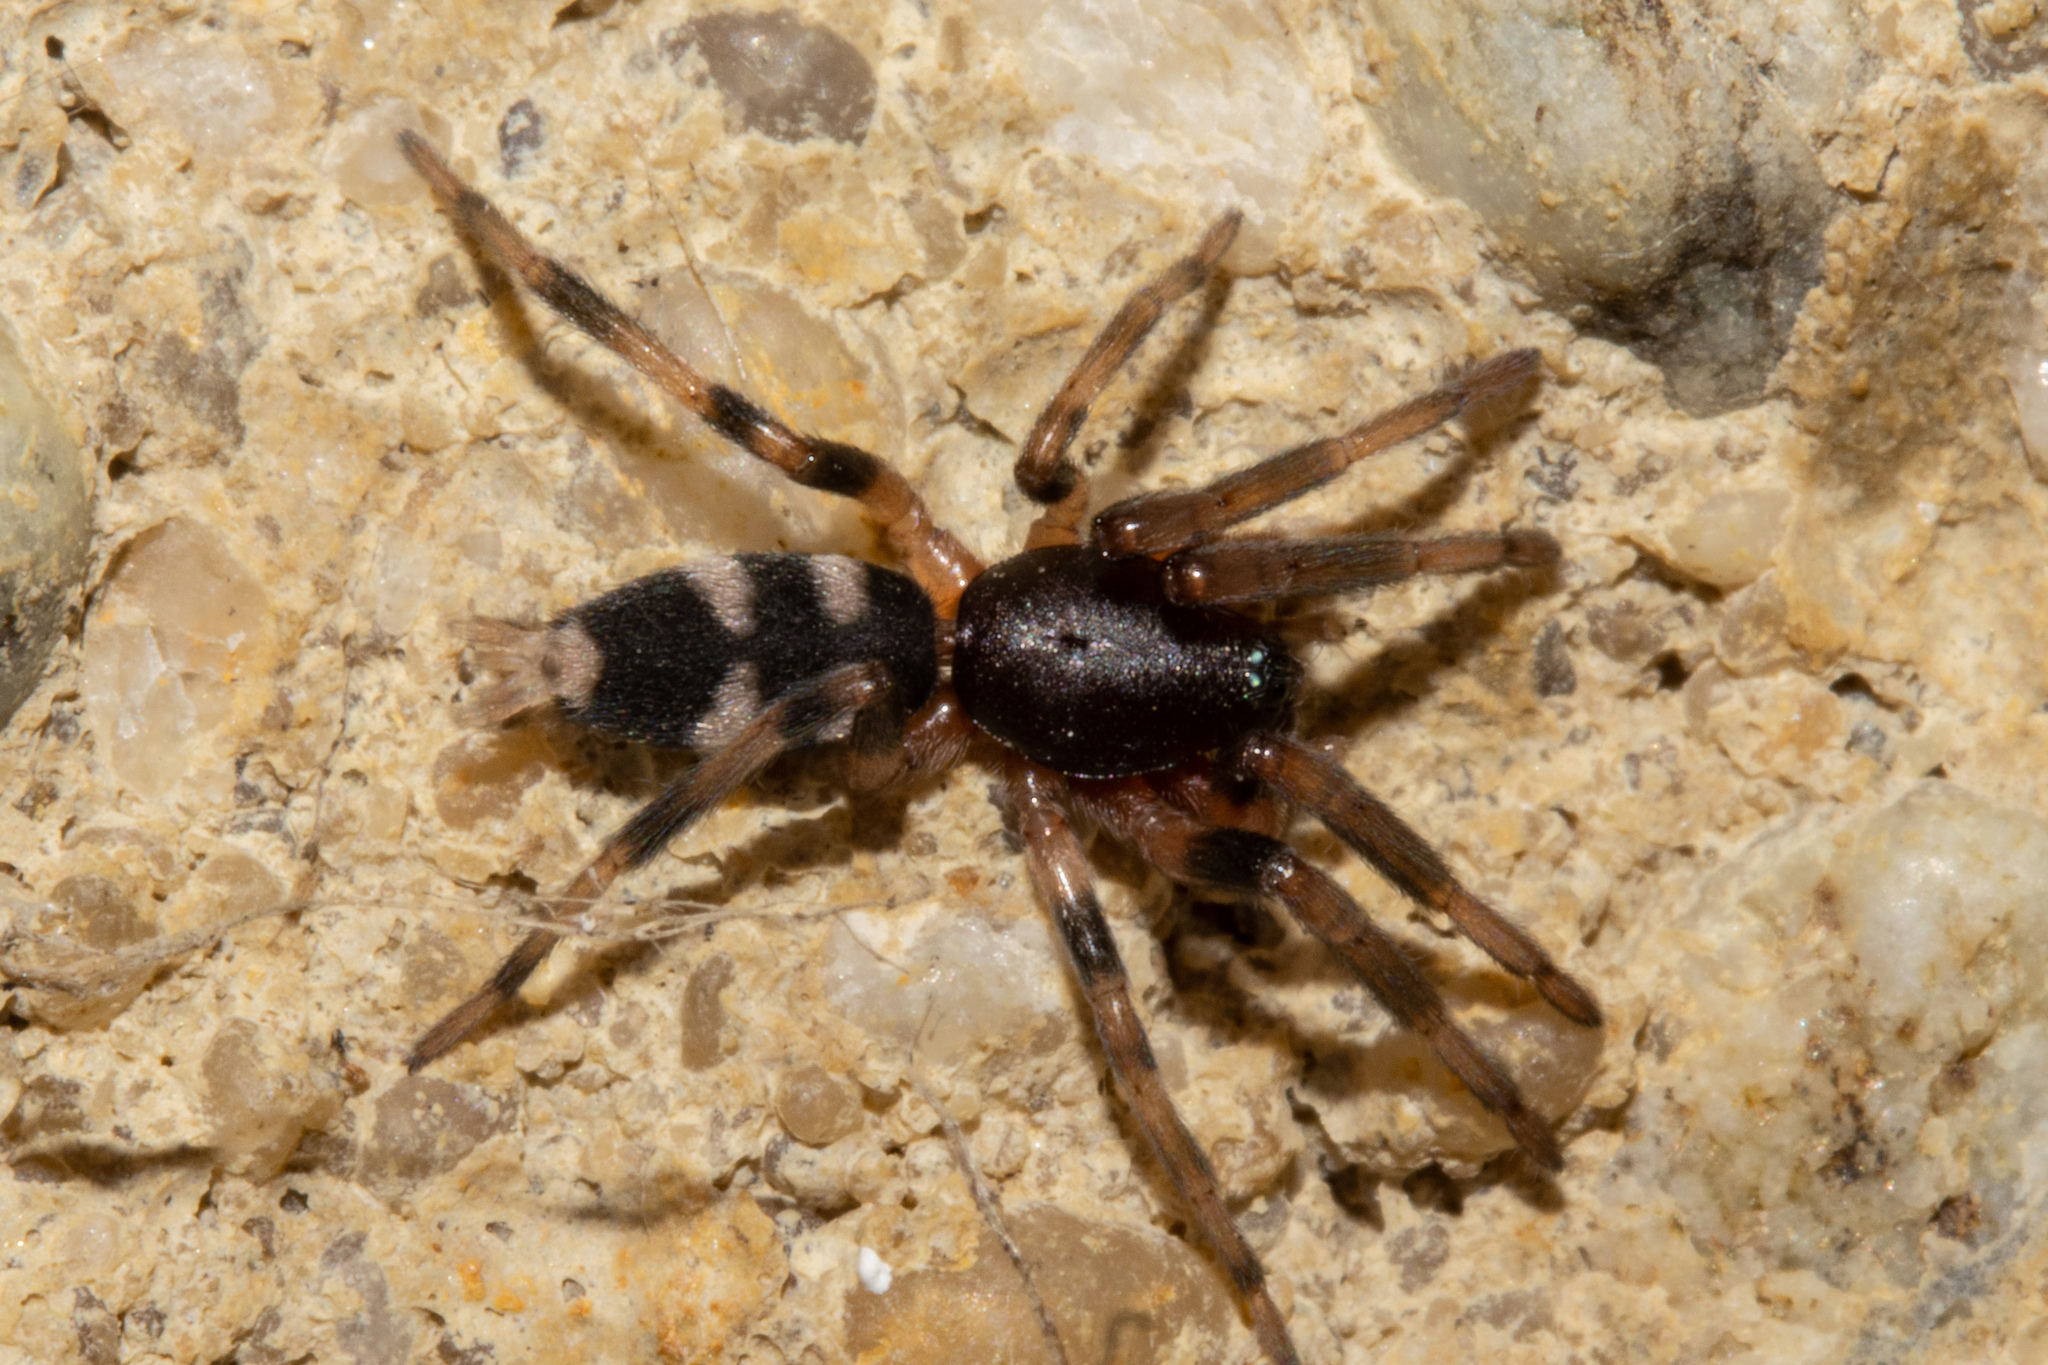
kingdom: Animalia
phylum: Arthropoda
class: Arachnida
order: Araneae
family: Lamponidae
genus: Lampona
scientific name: Lampona cylindrata
